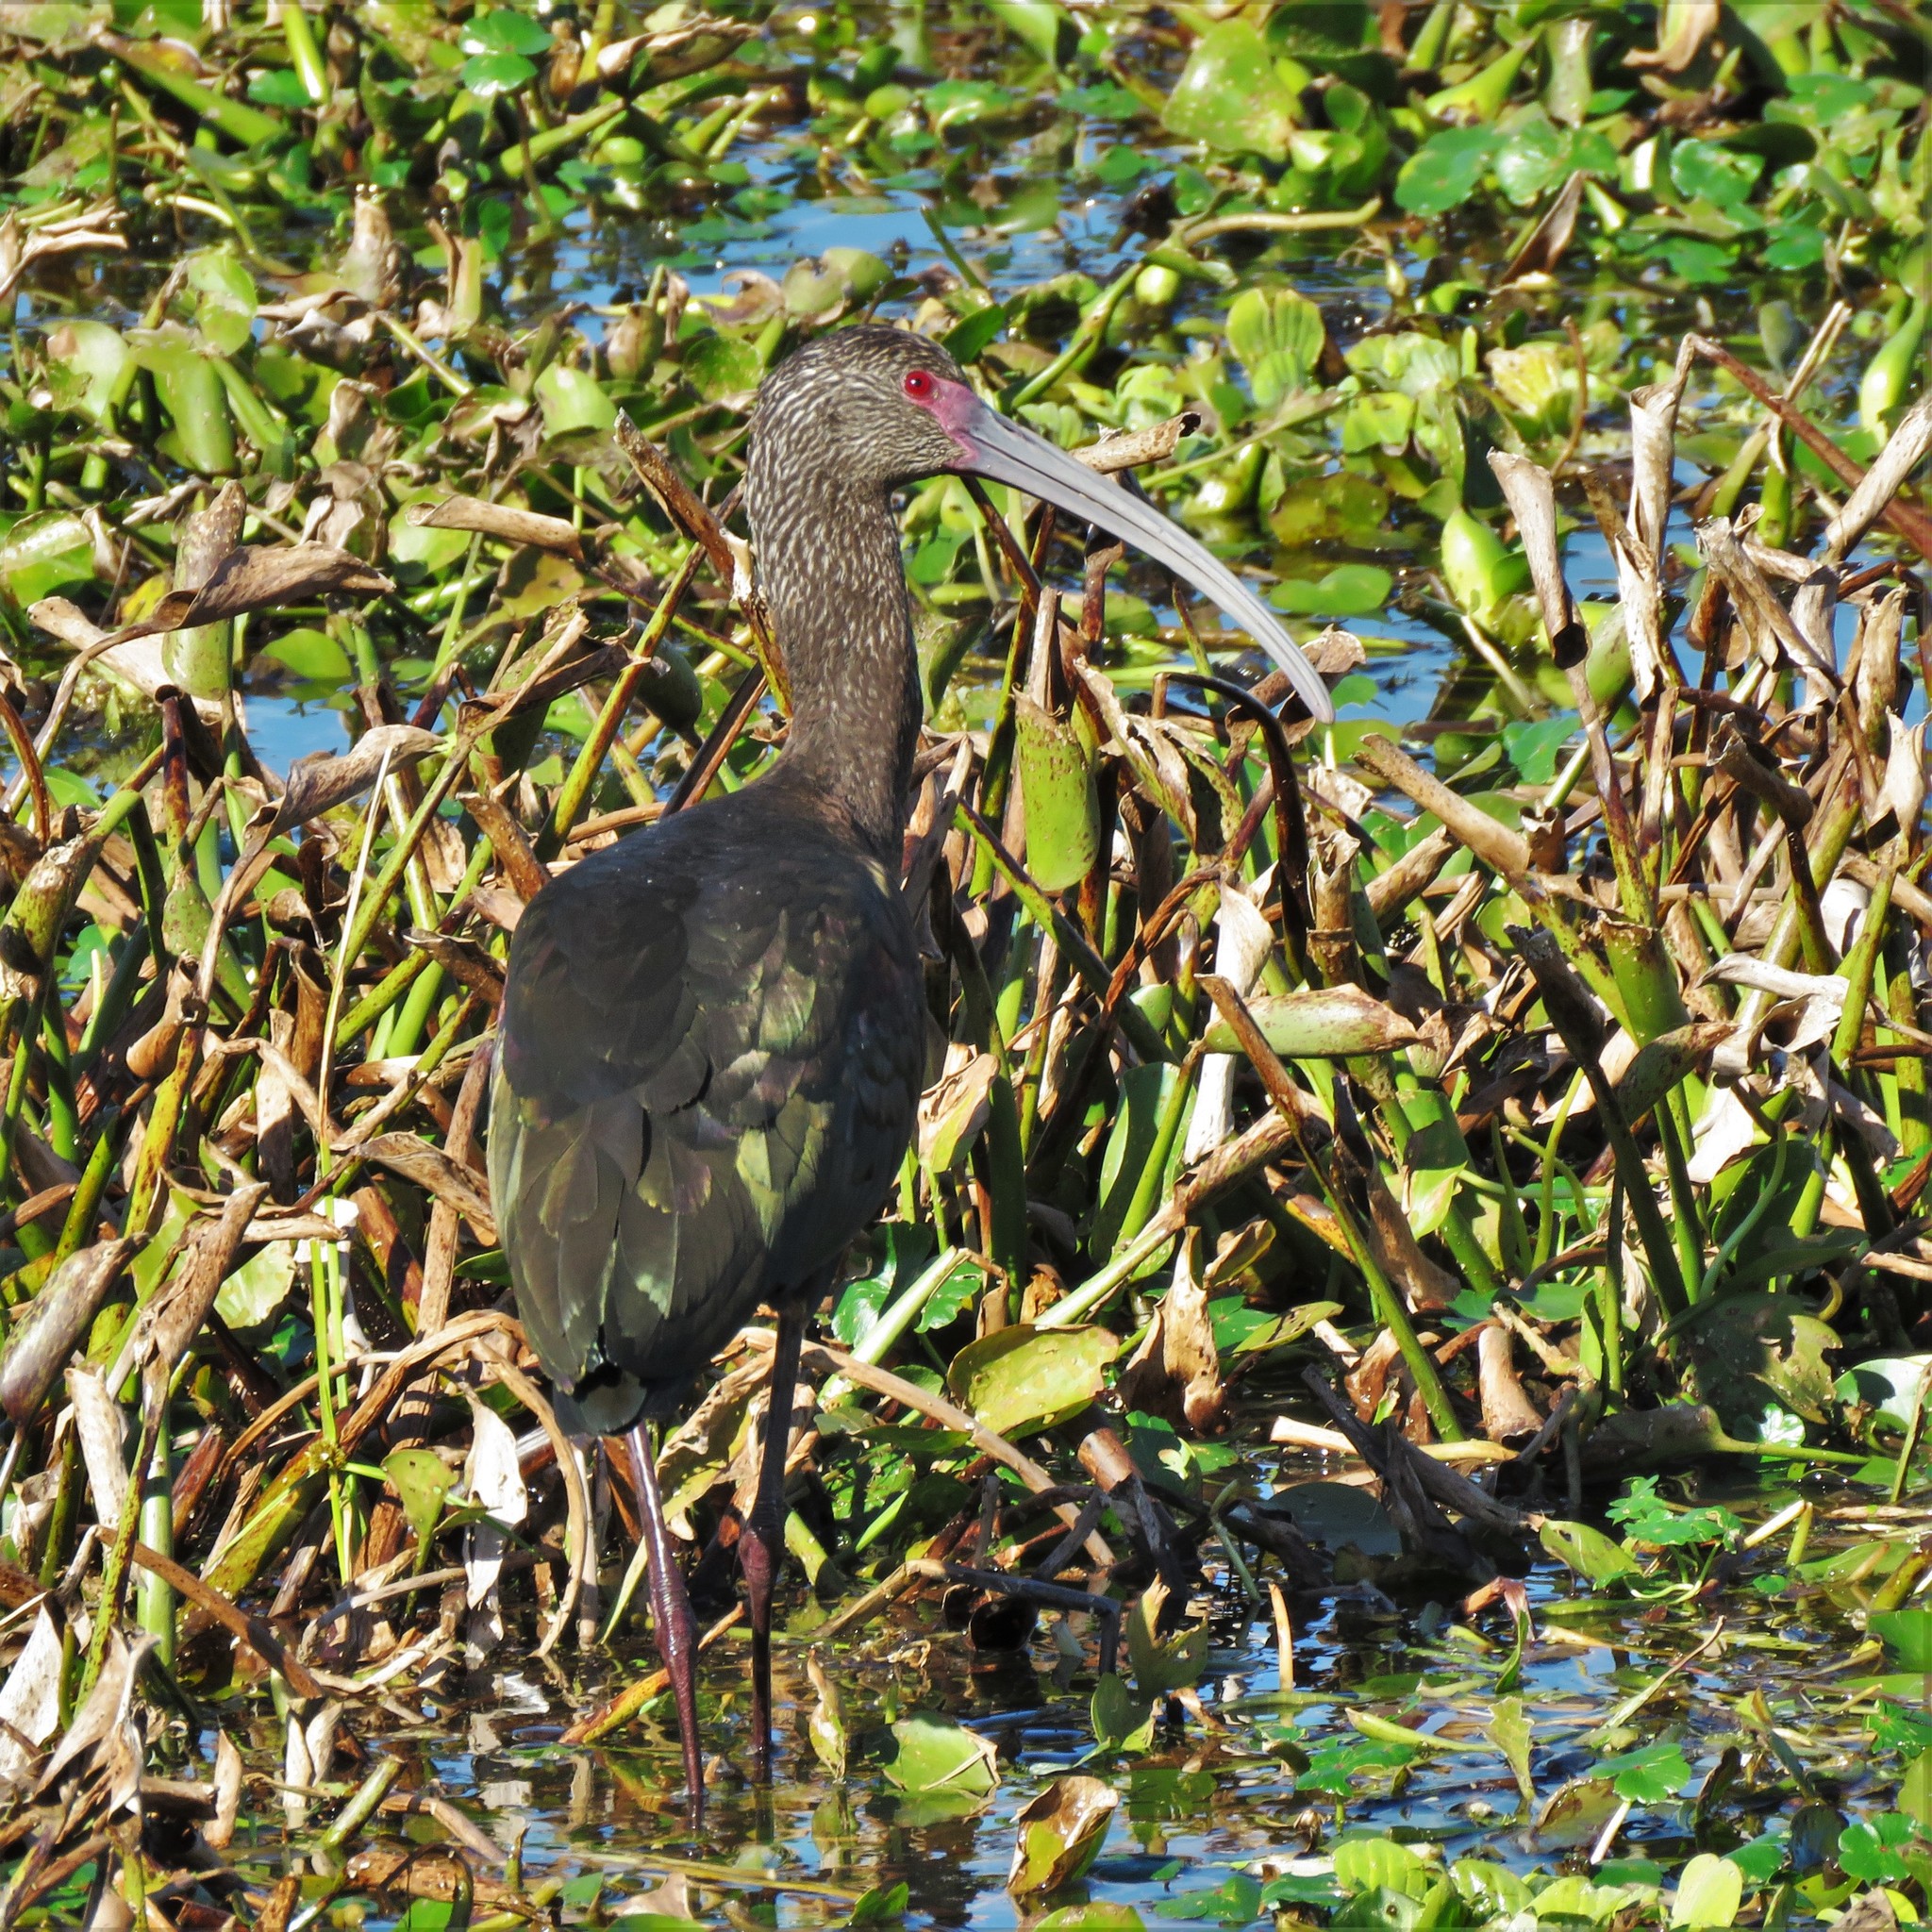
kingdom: Animalia
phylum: Chordata
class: Aves
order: Pelecaniformes
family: Threskiornithidae
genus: Plegadis
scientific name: Plegadis chihi
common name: White-faced ibis
